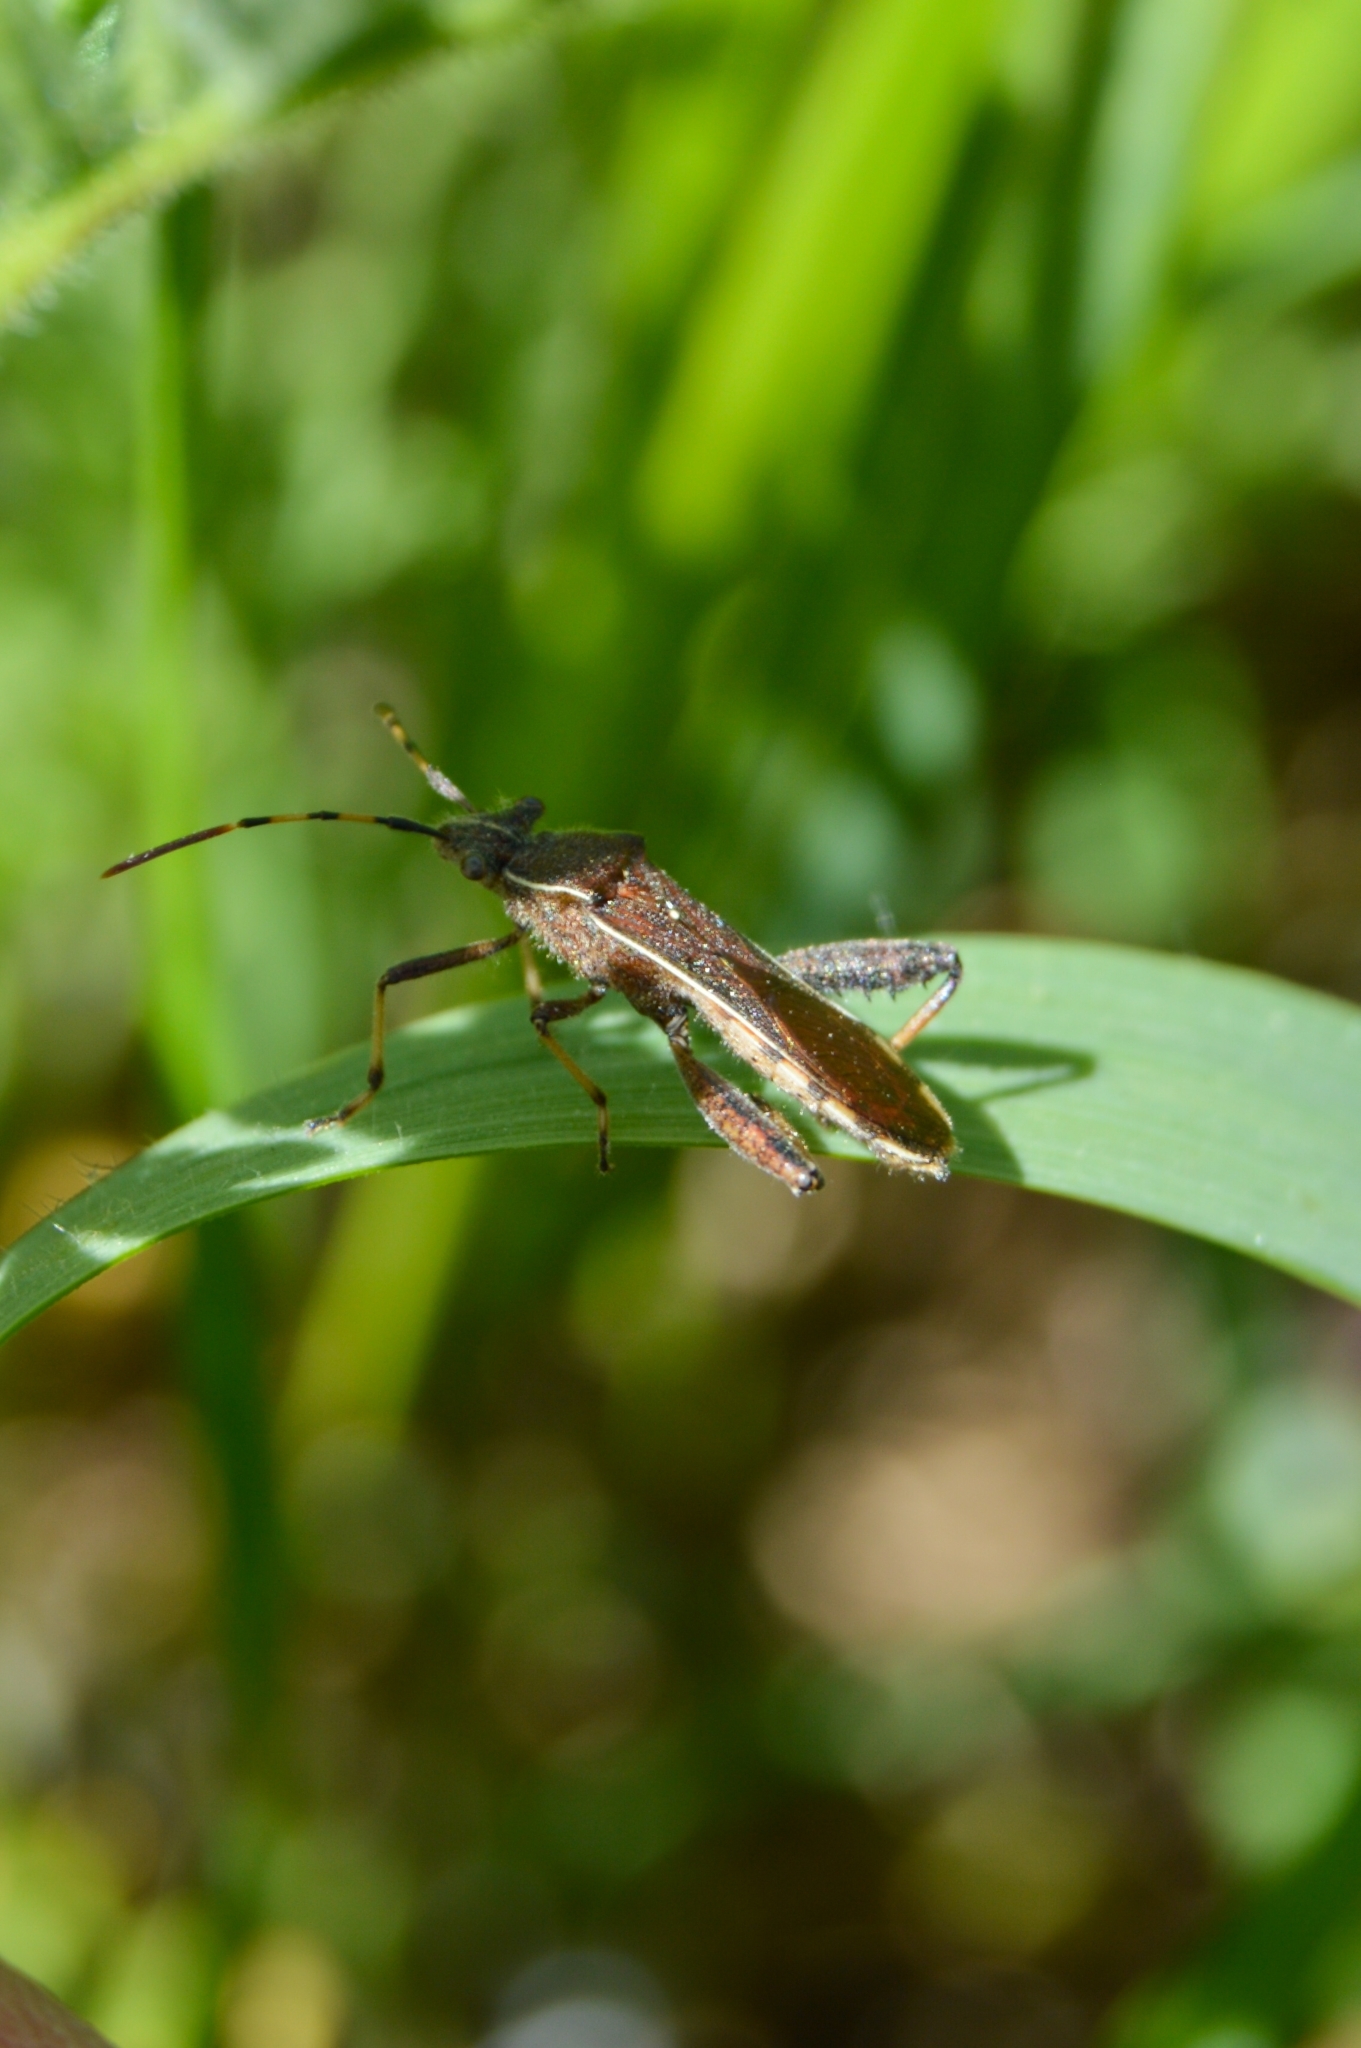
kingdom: Animalia
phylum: Arthropoda
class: Insecta
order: Hemiptera
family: Alydidae
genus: Camptopus
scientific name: Camptopus lateralis
